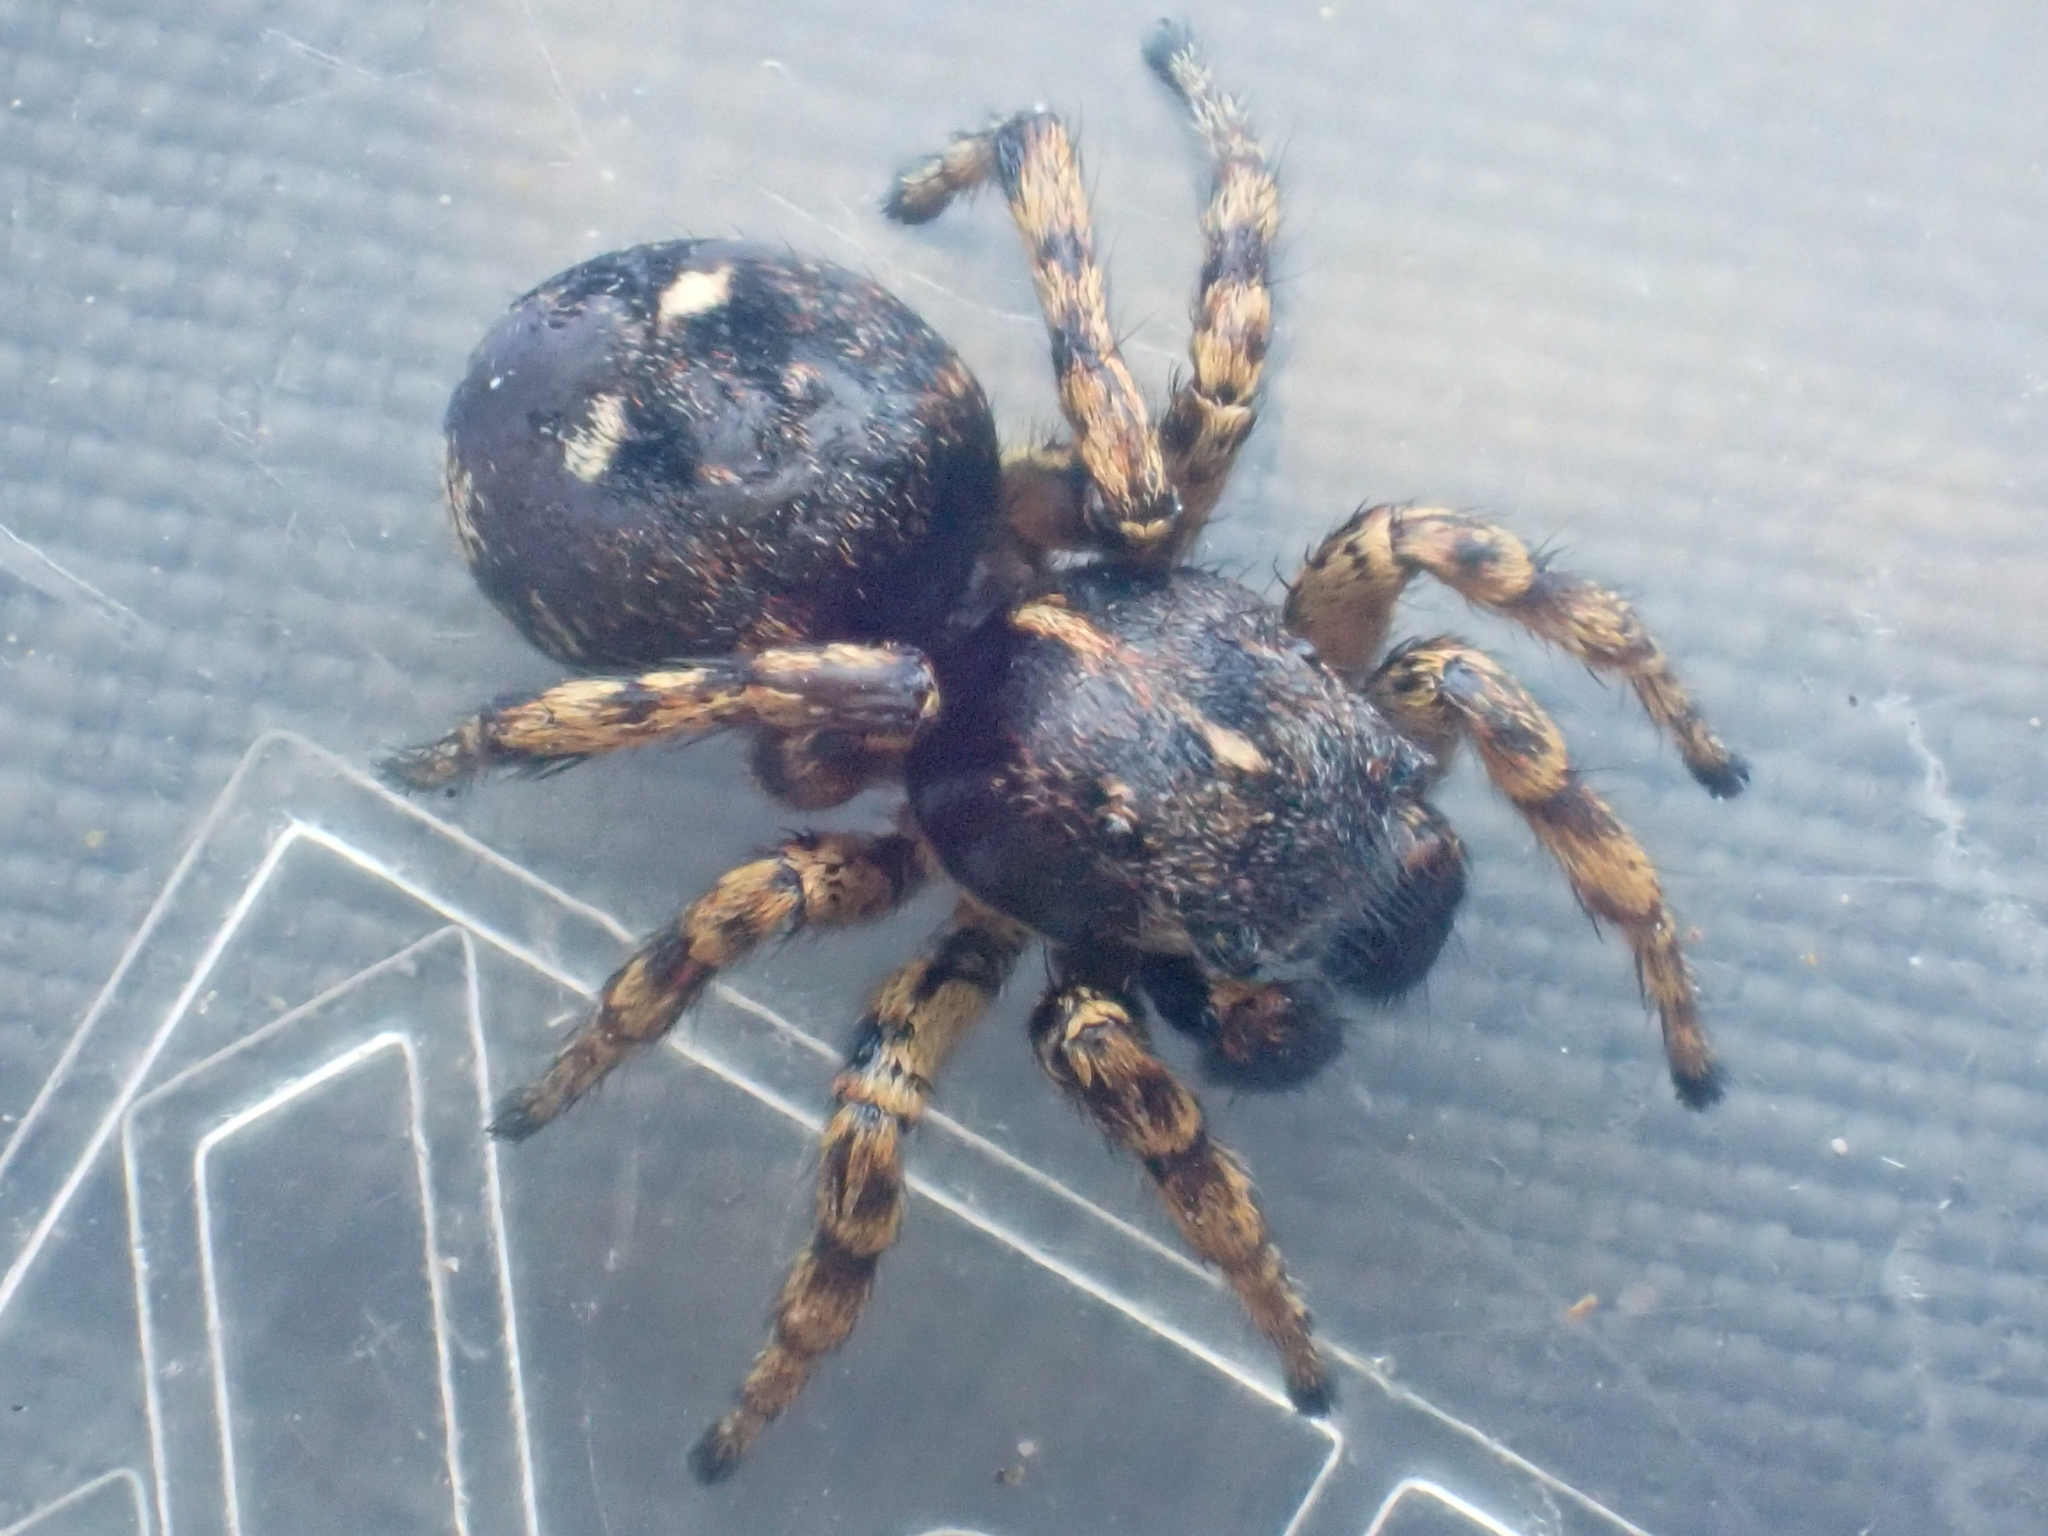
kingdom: Animalia
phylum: Arthropoda
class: Arachnida
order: Araneae
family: Salticidae
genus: Sittisax
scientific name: Sittisax ranieri
